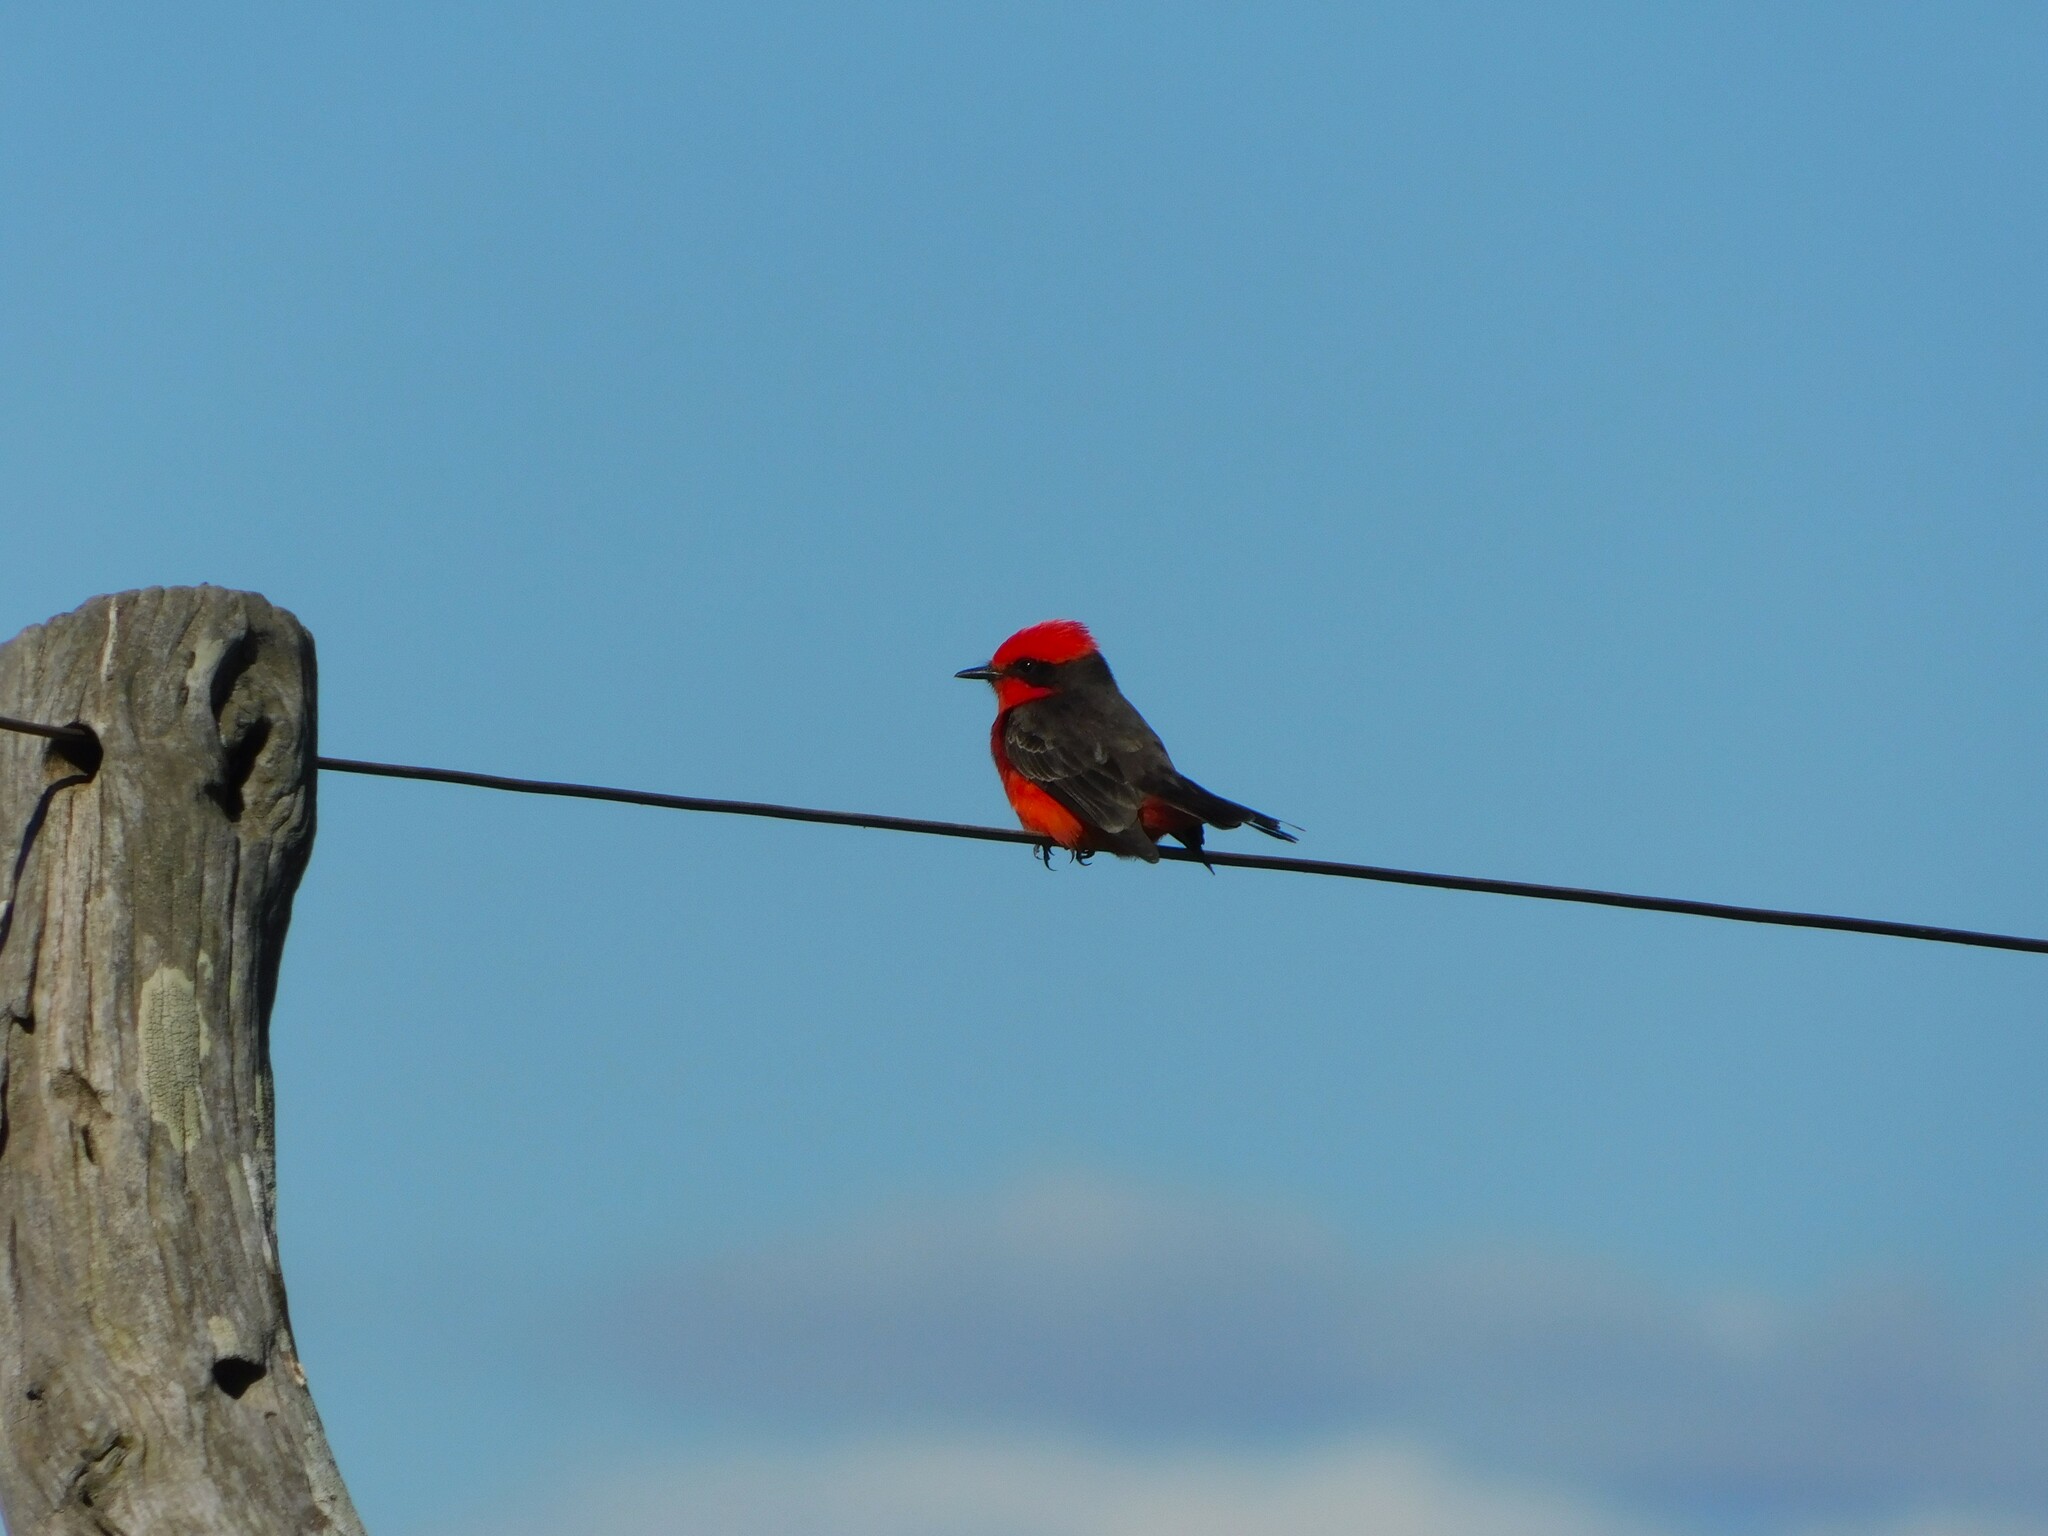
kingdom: Animalia
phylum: Chordata
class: Aves
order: Passeriformes
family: Tyrannidae
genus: Pyrocephalus
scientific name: Pyrocephalus rubinus
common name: Vermilion flycatcher
